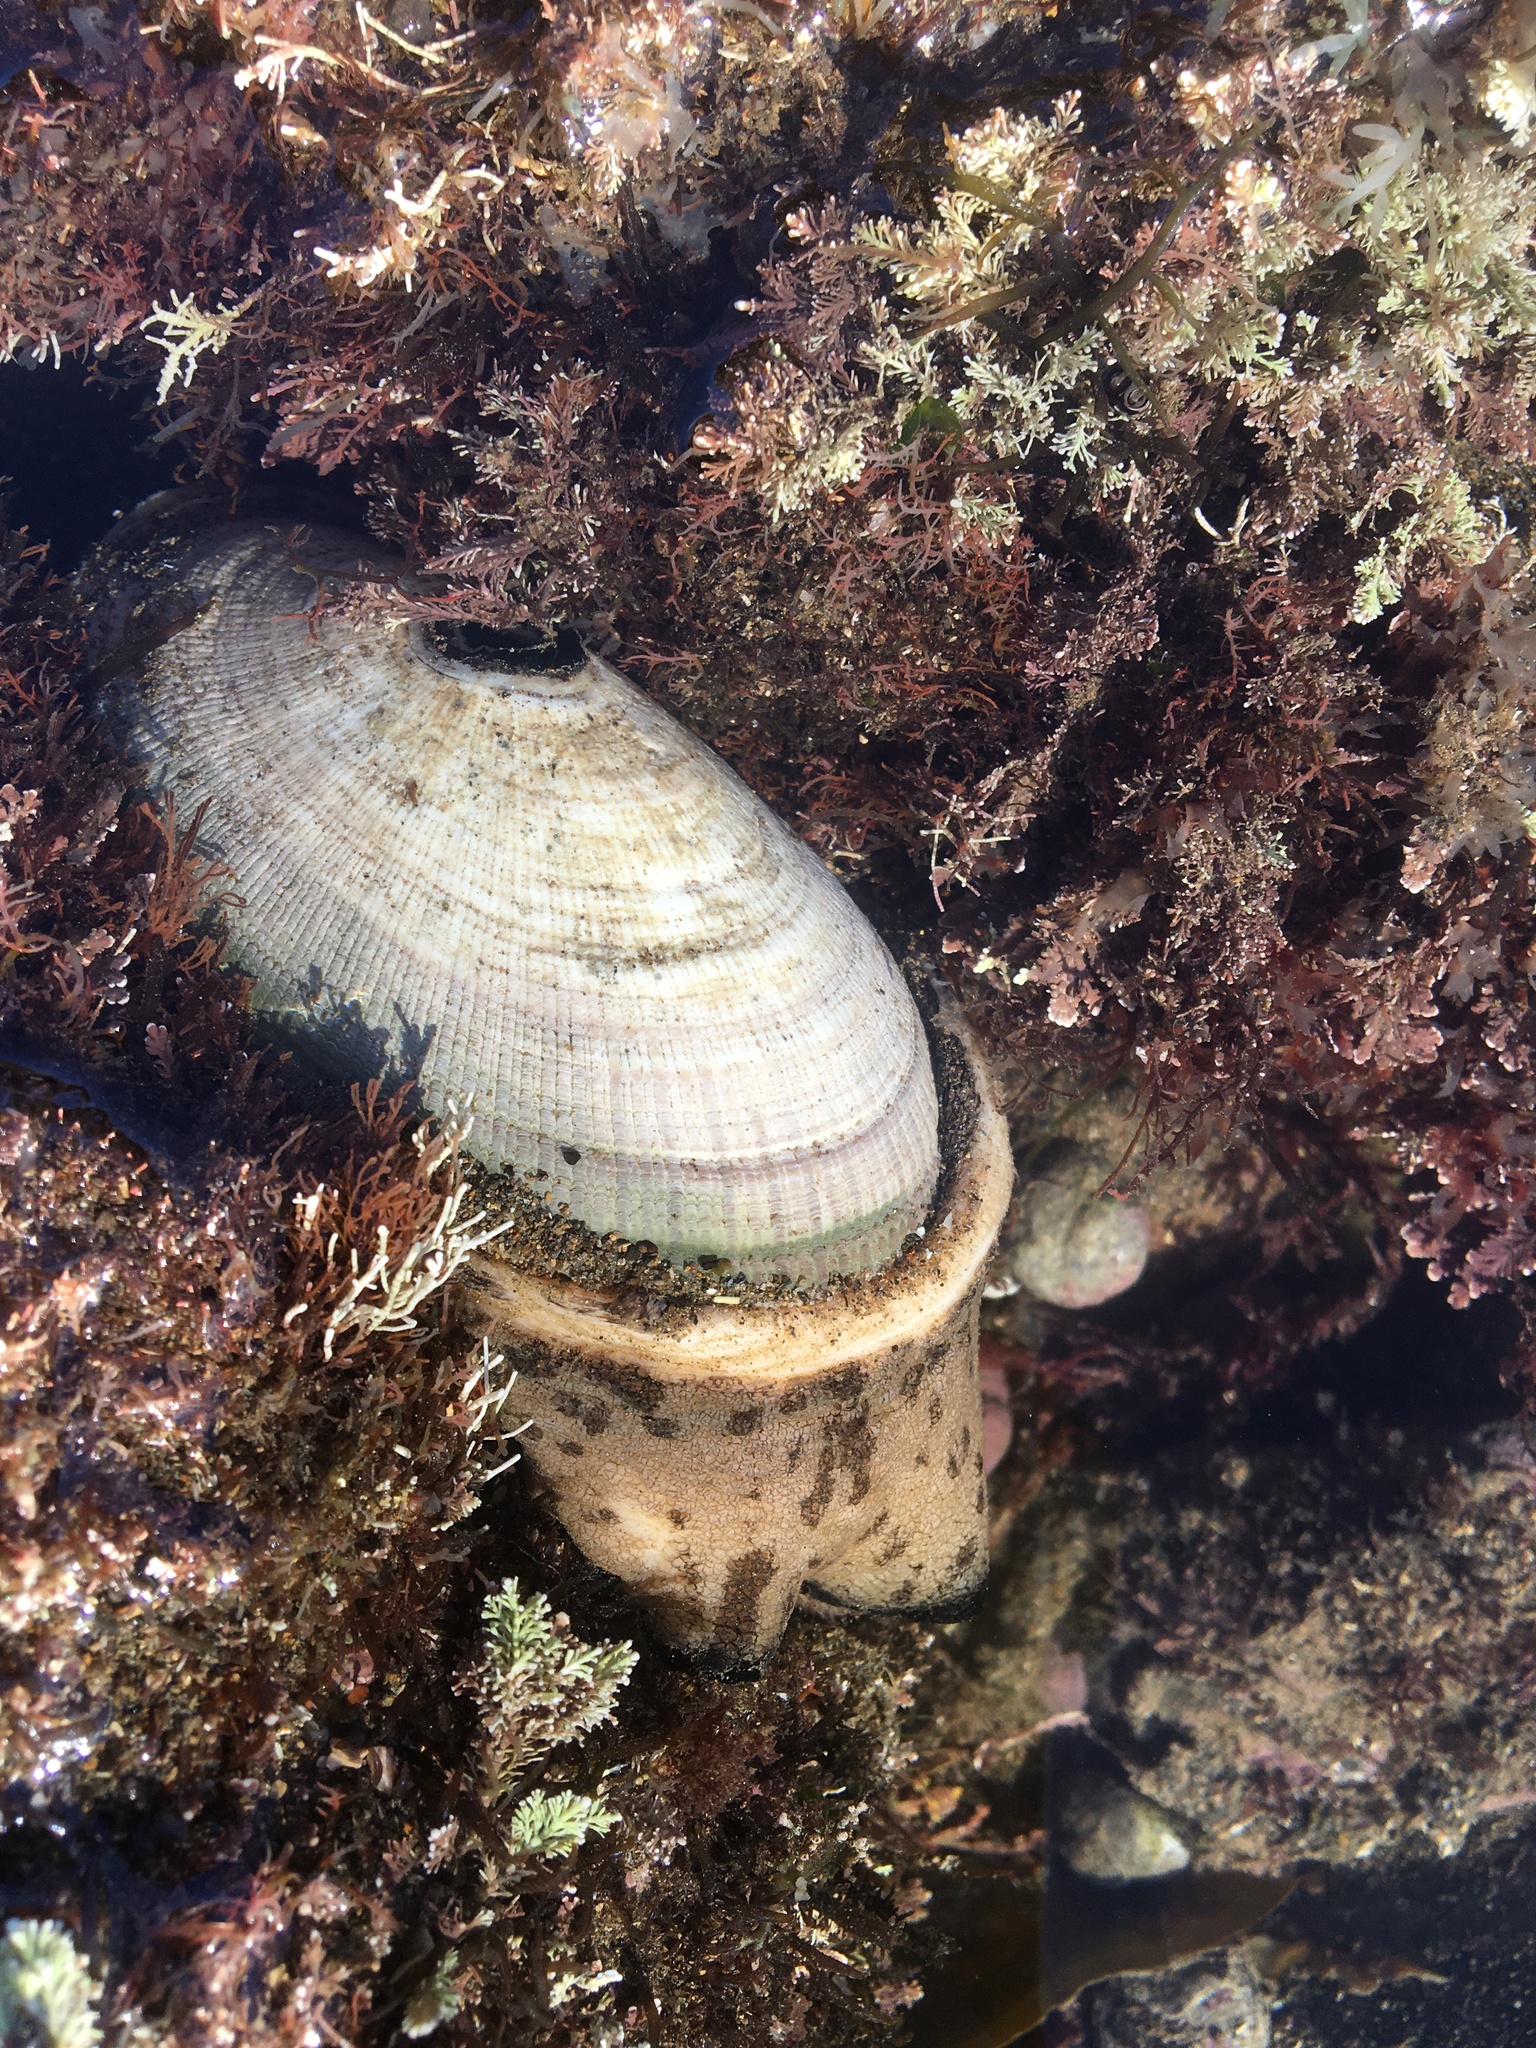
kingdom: Animalia
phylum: Mollusca
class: Gastropoda
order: Lepetellida
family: Fissurellidae
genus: Megathura
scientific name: Megathura crenulata
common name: Giant keyhole limpet
